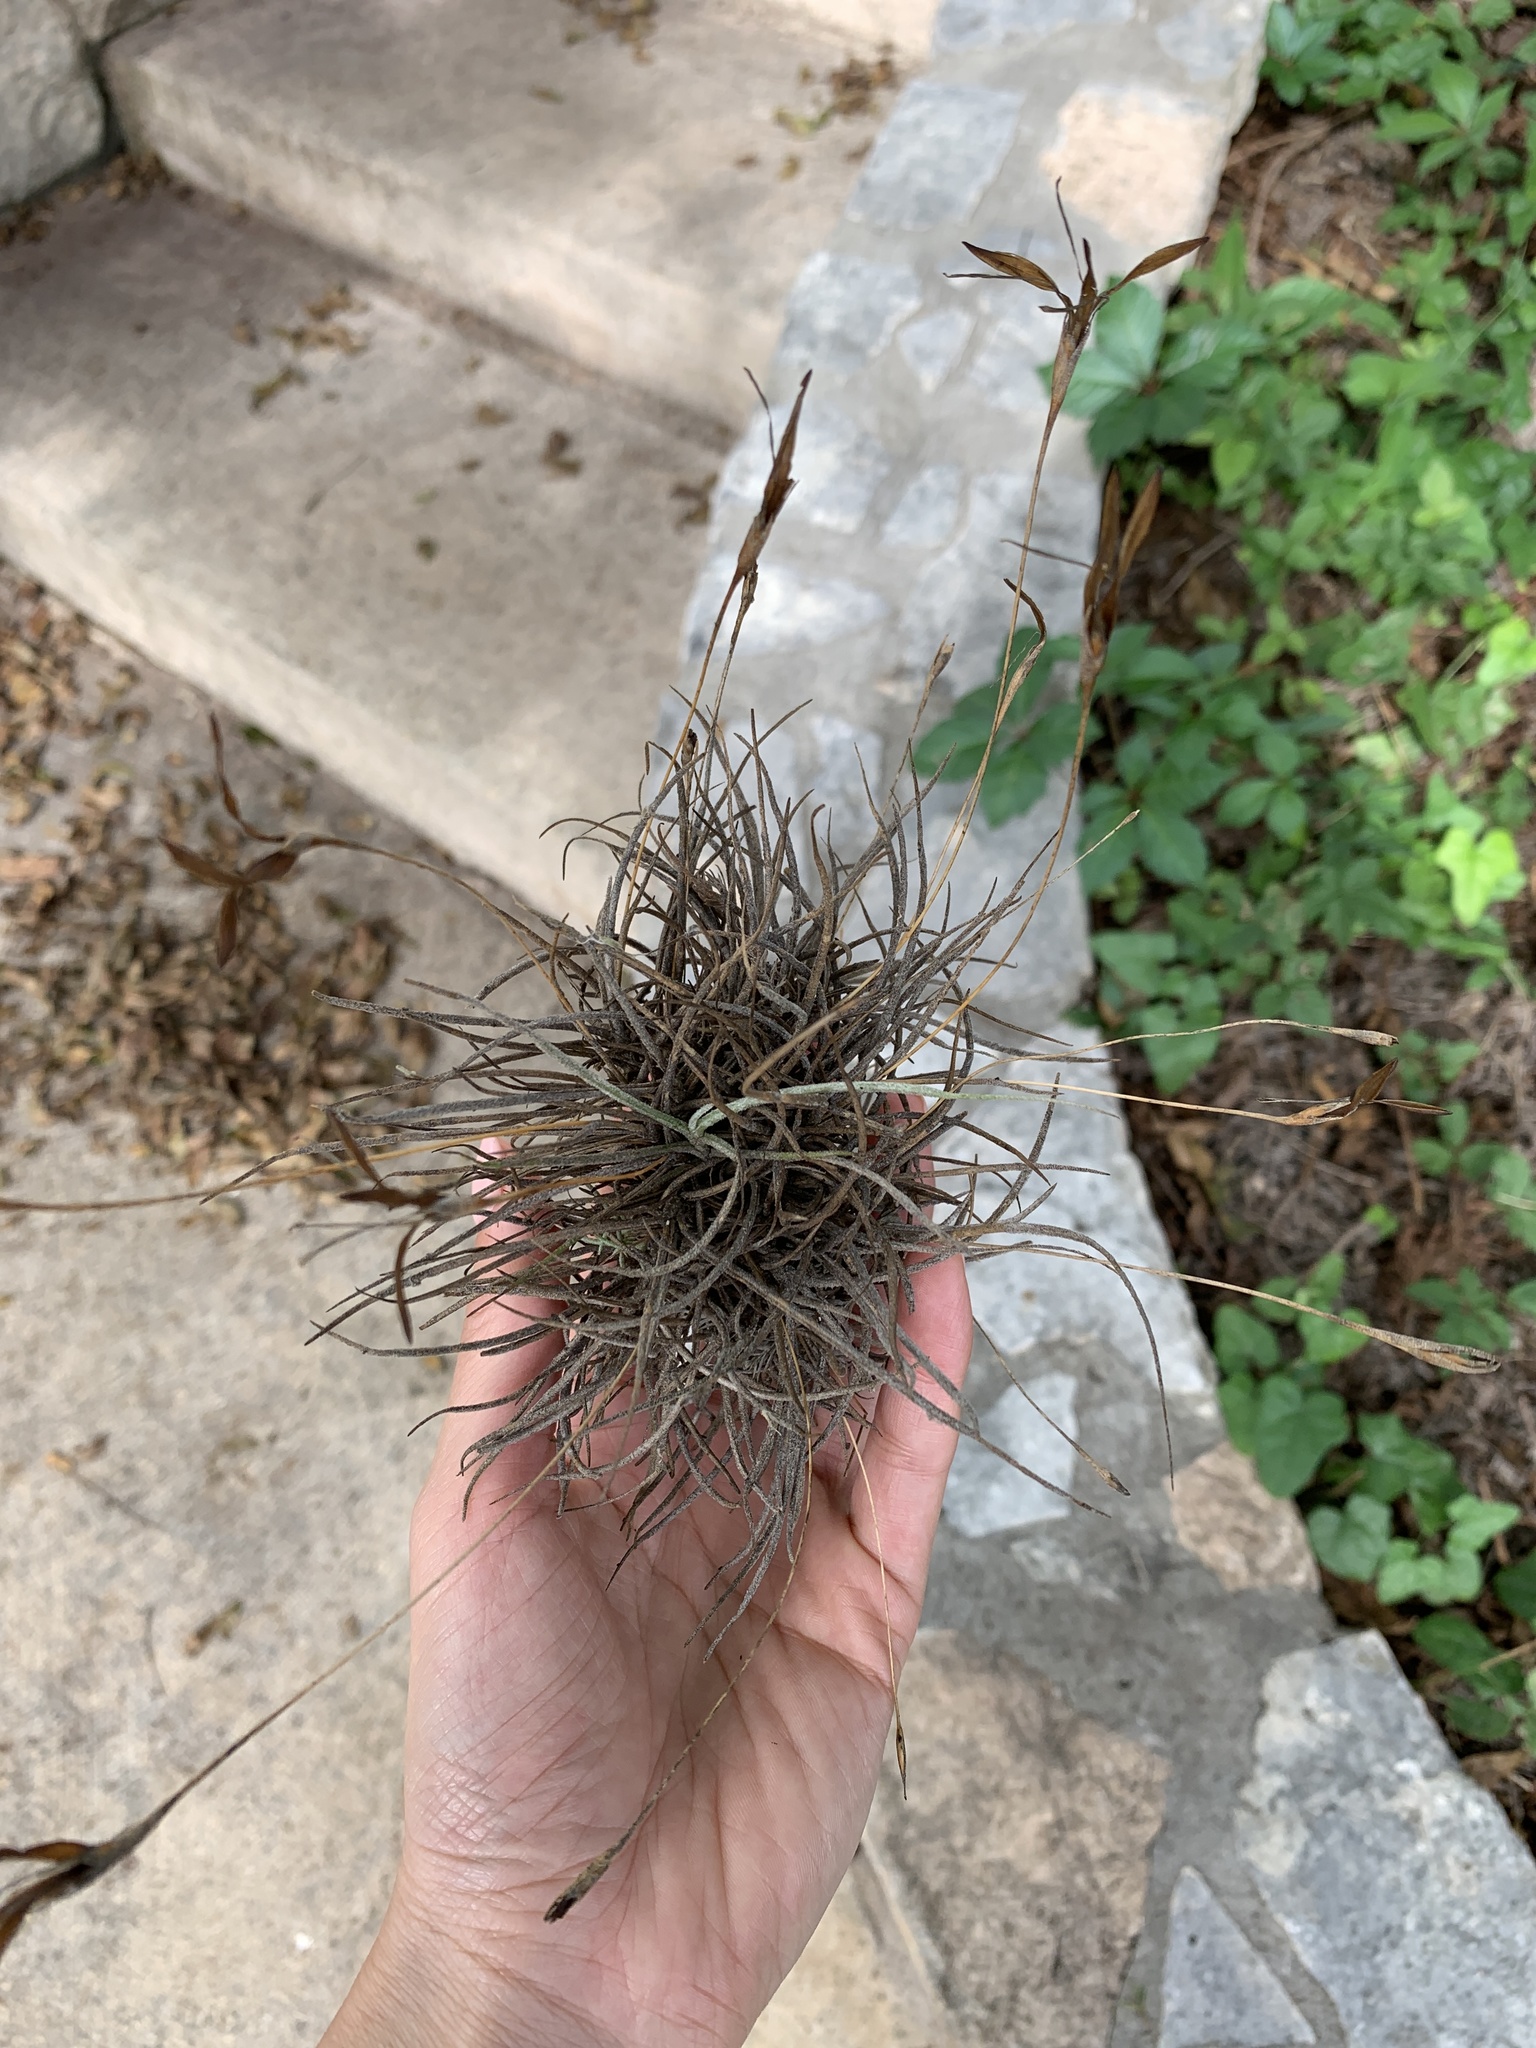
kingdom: Plantae
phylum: Tracheophyta
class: Liliopsida
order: Poales
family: Bromeliaceae
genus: Tillandsia
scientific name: Tillandsia recurvata
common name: Small ballmoss
